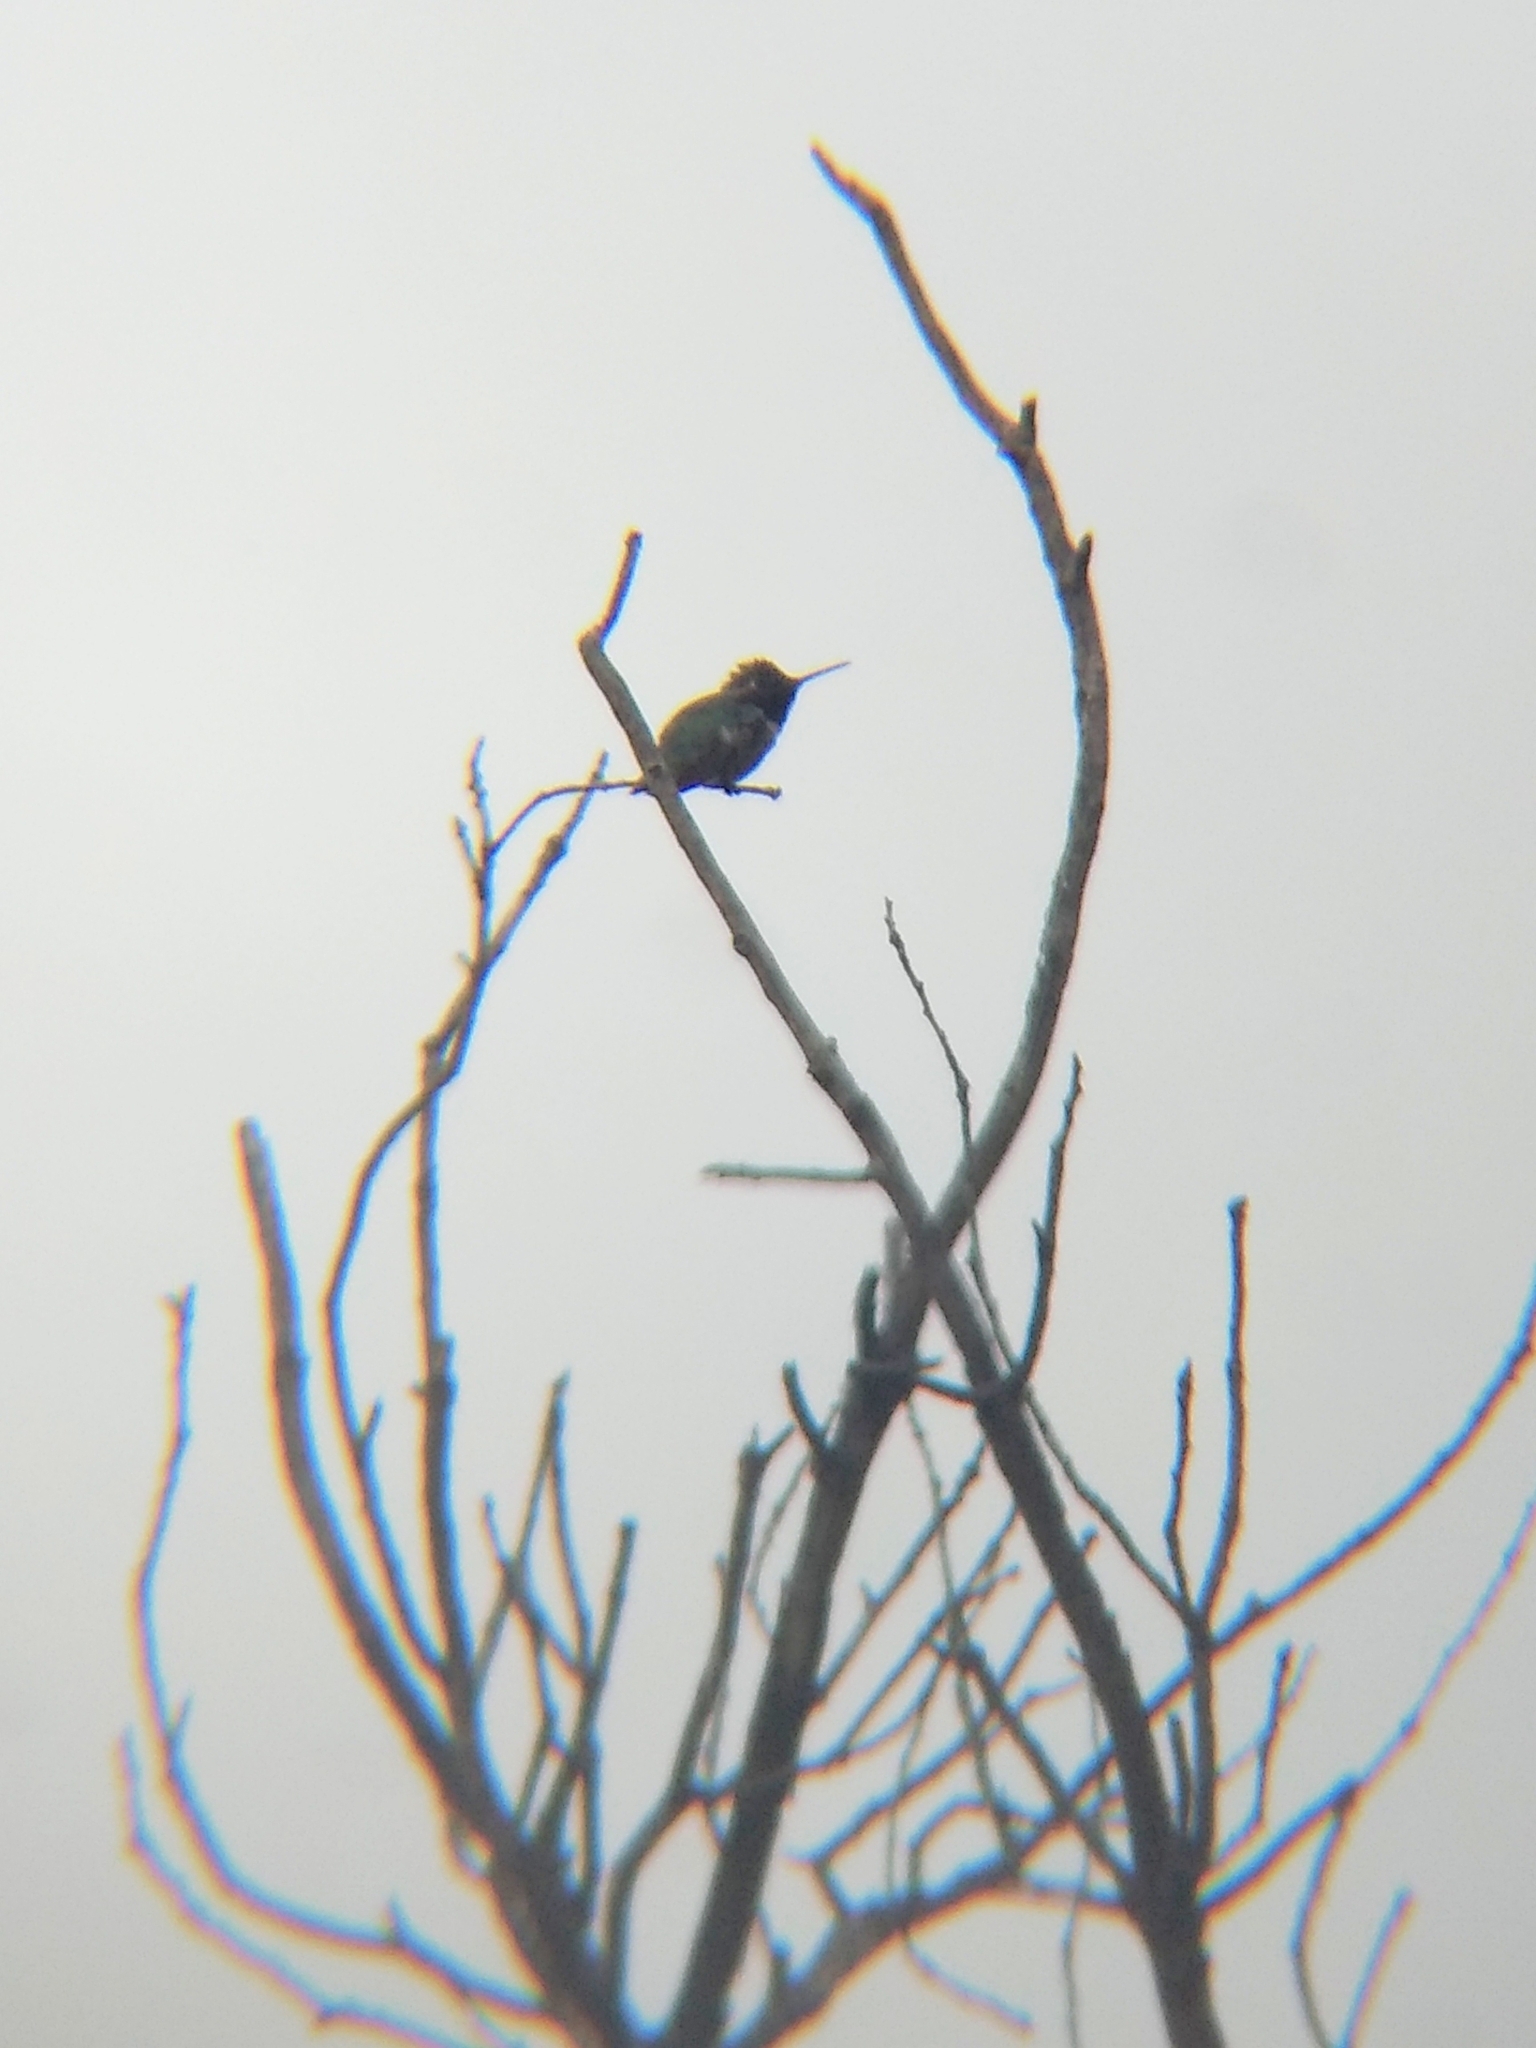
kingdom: Animalia
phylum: Chordata
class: Aves
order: Apodiformes
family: Trochilidae
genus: Calypte
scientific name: Calypte anna
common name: Anna's hummingbird
